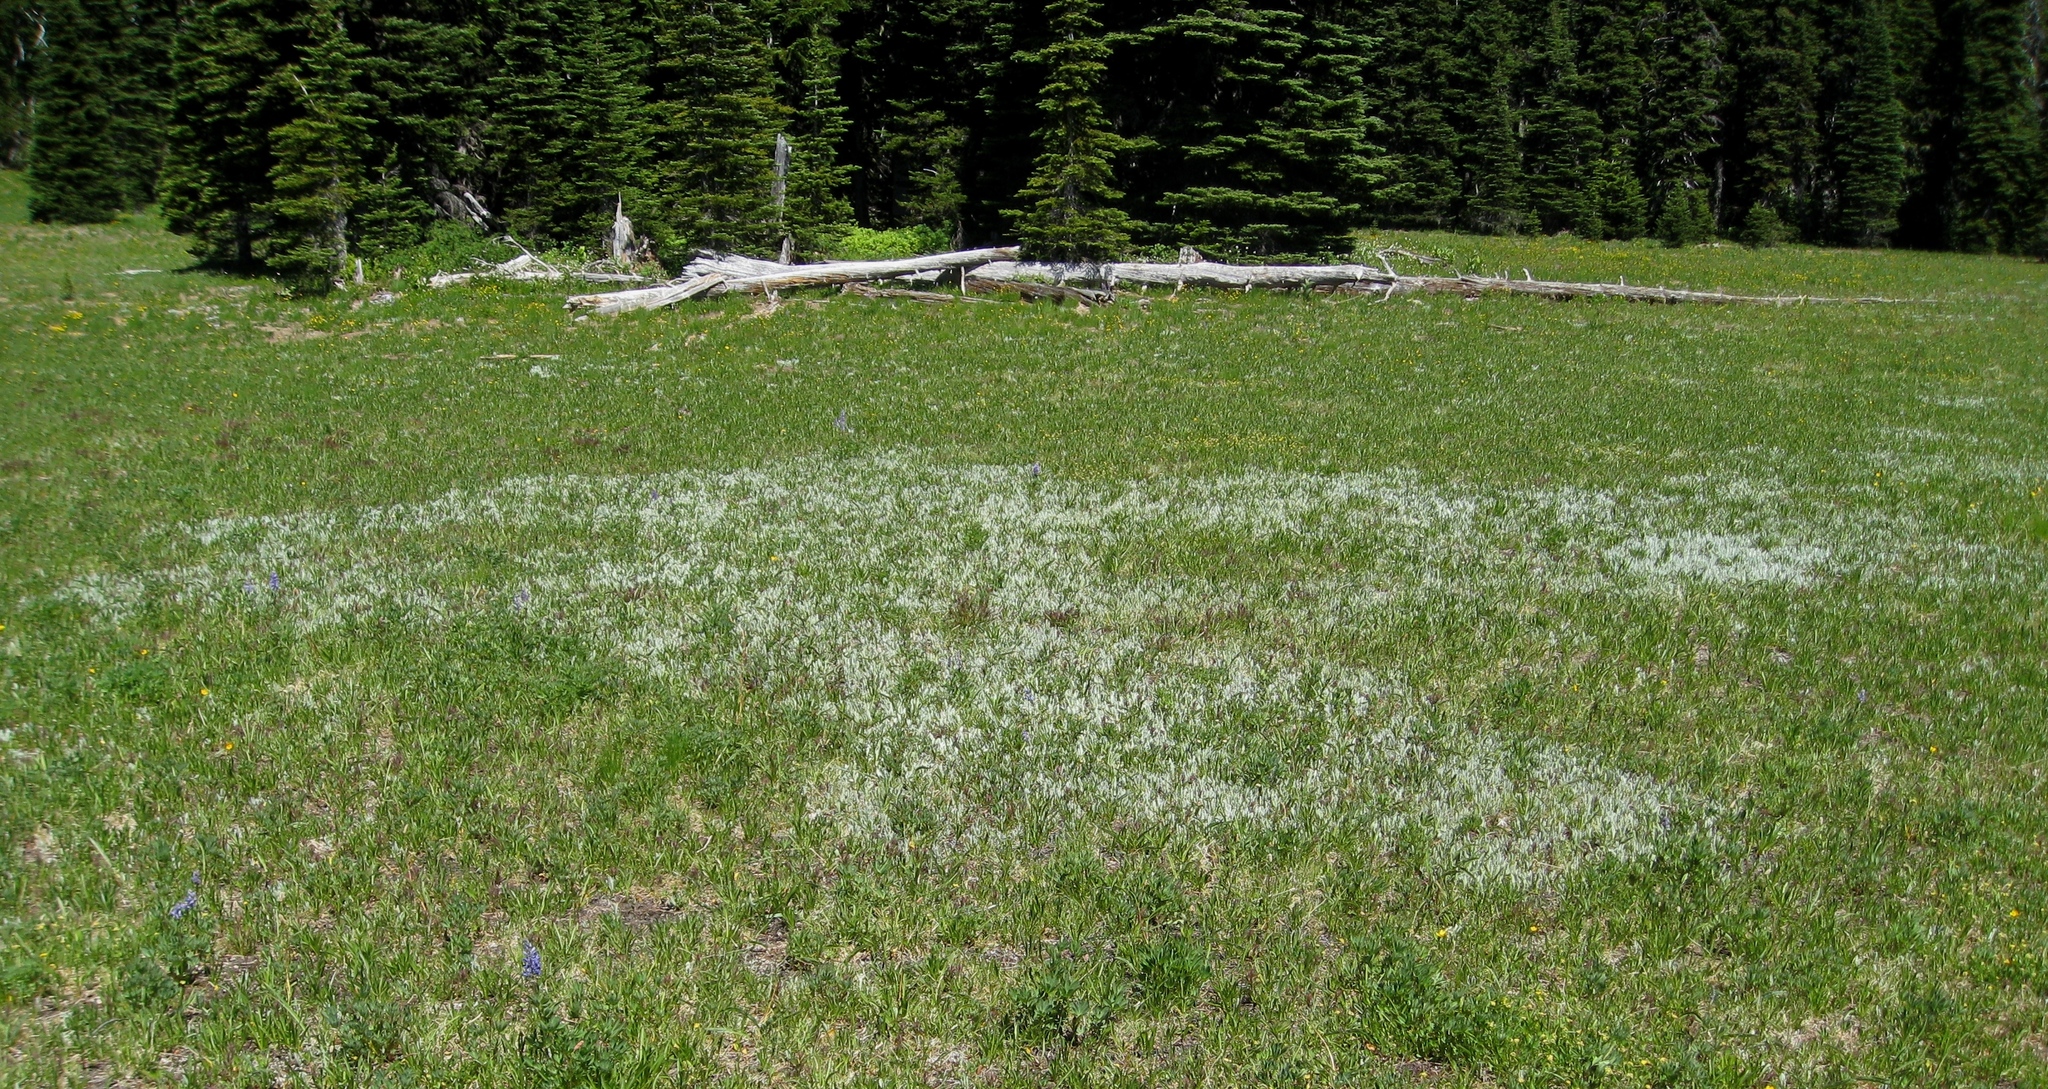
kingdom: Plantae
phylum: Tracheophyta
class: Magnoliopsida
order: Asterales
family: Asteraceae
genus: Antennaria
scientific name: Antennaria lanata
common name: Woolly pussytoes
